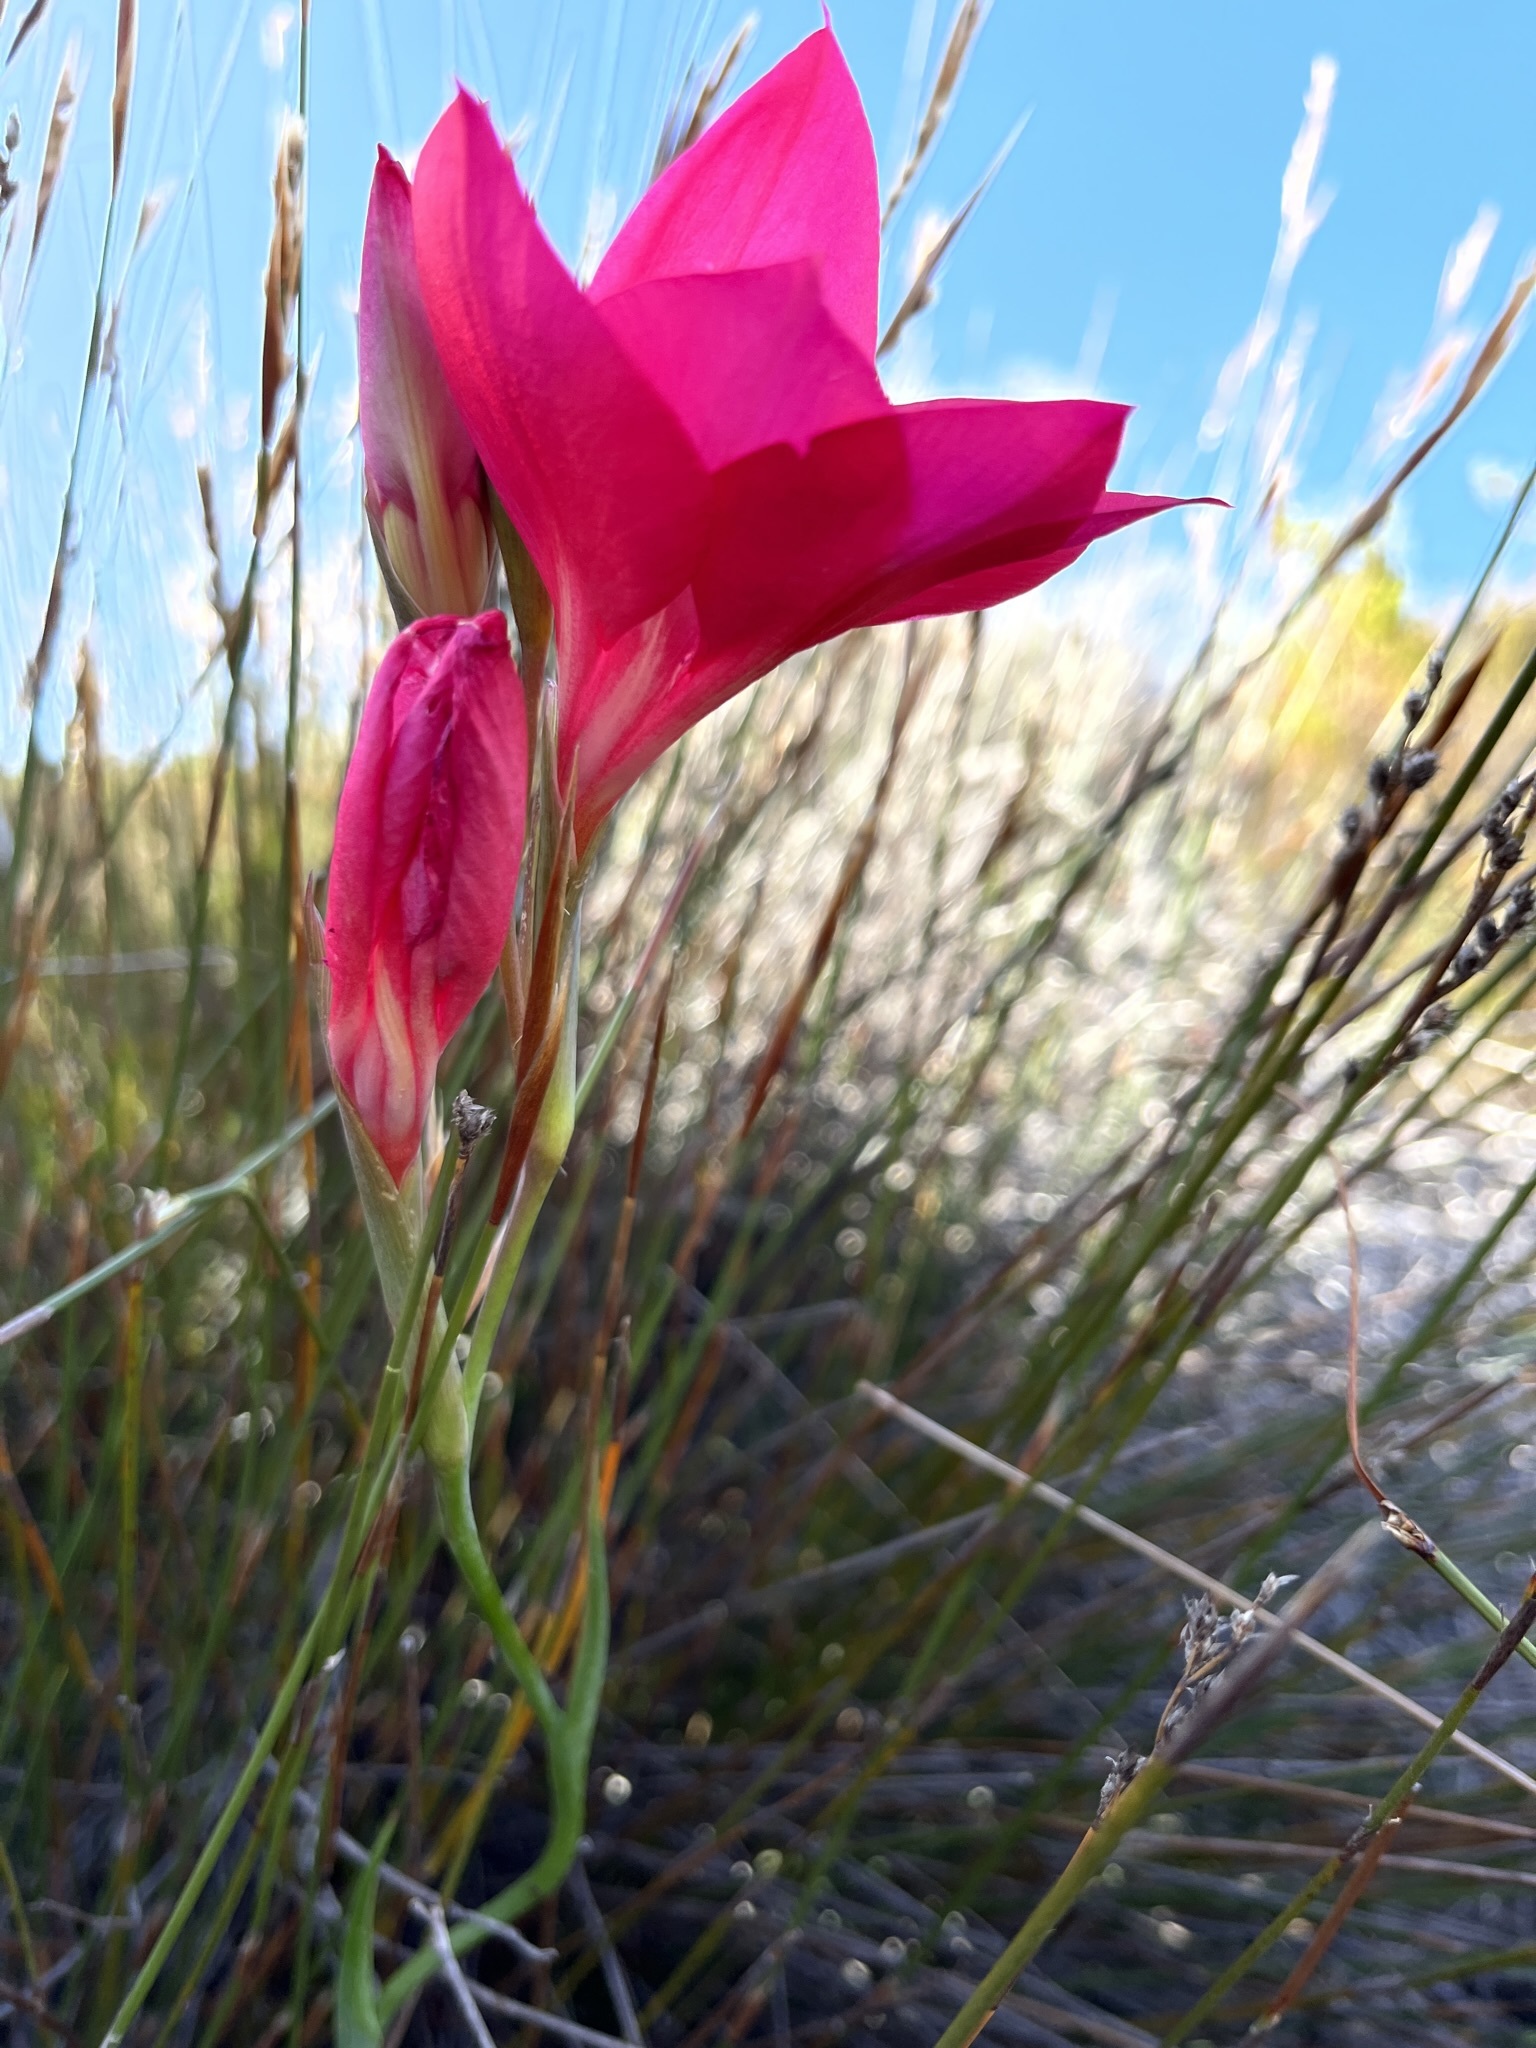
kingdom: Plantae
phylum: Tracheophyta
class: Liliopsida
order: Asparagales
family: Iridaceae
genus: Gladiolus
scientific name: Gladiolus stefaniae
